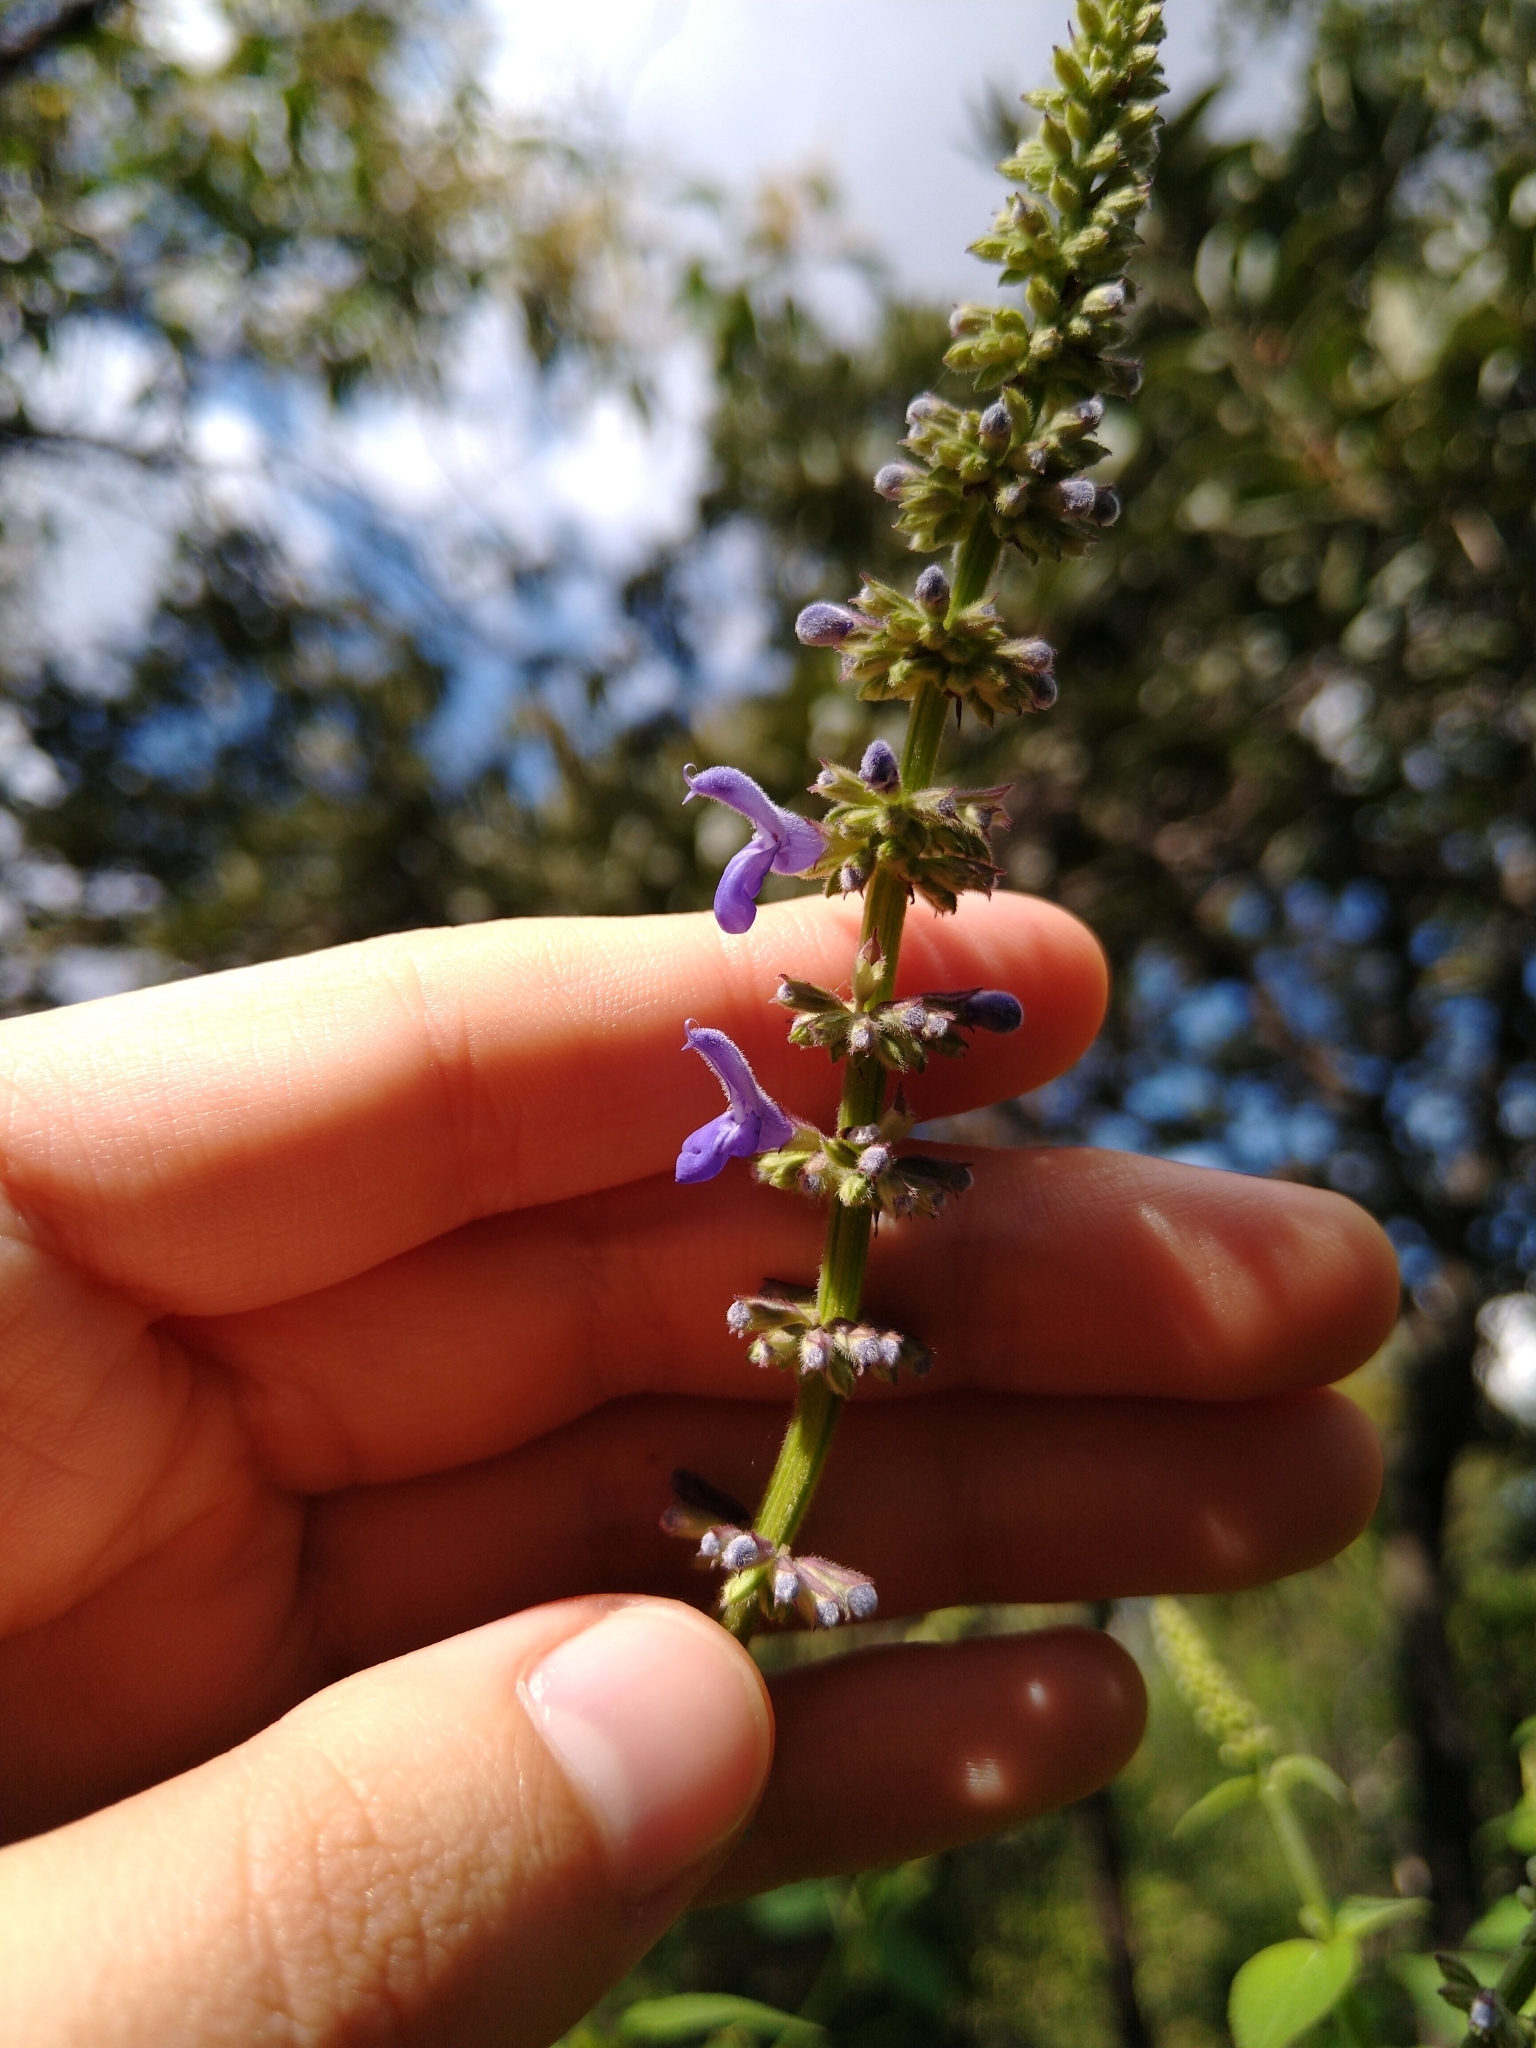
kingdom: Plantae
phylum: Tracheophyta
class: Magnoliopsida
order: Lamiales
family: Lamiaceae
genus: Salvia
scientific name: Salvia polystachia
